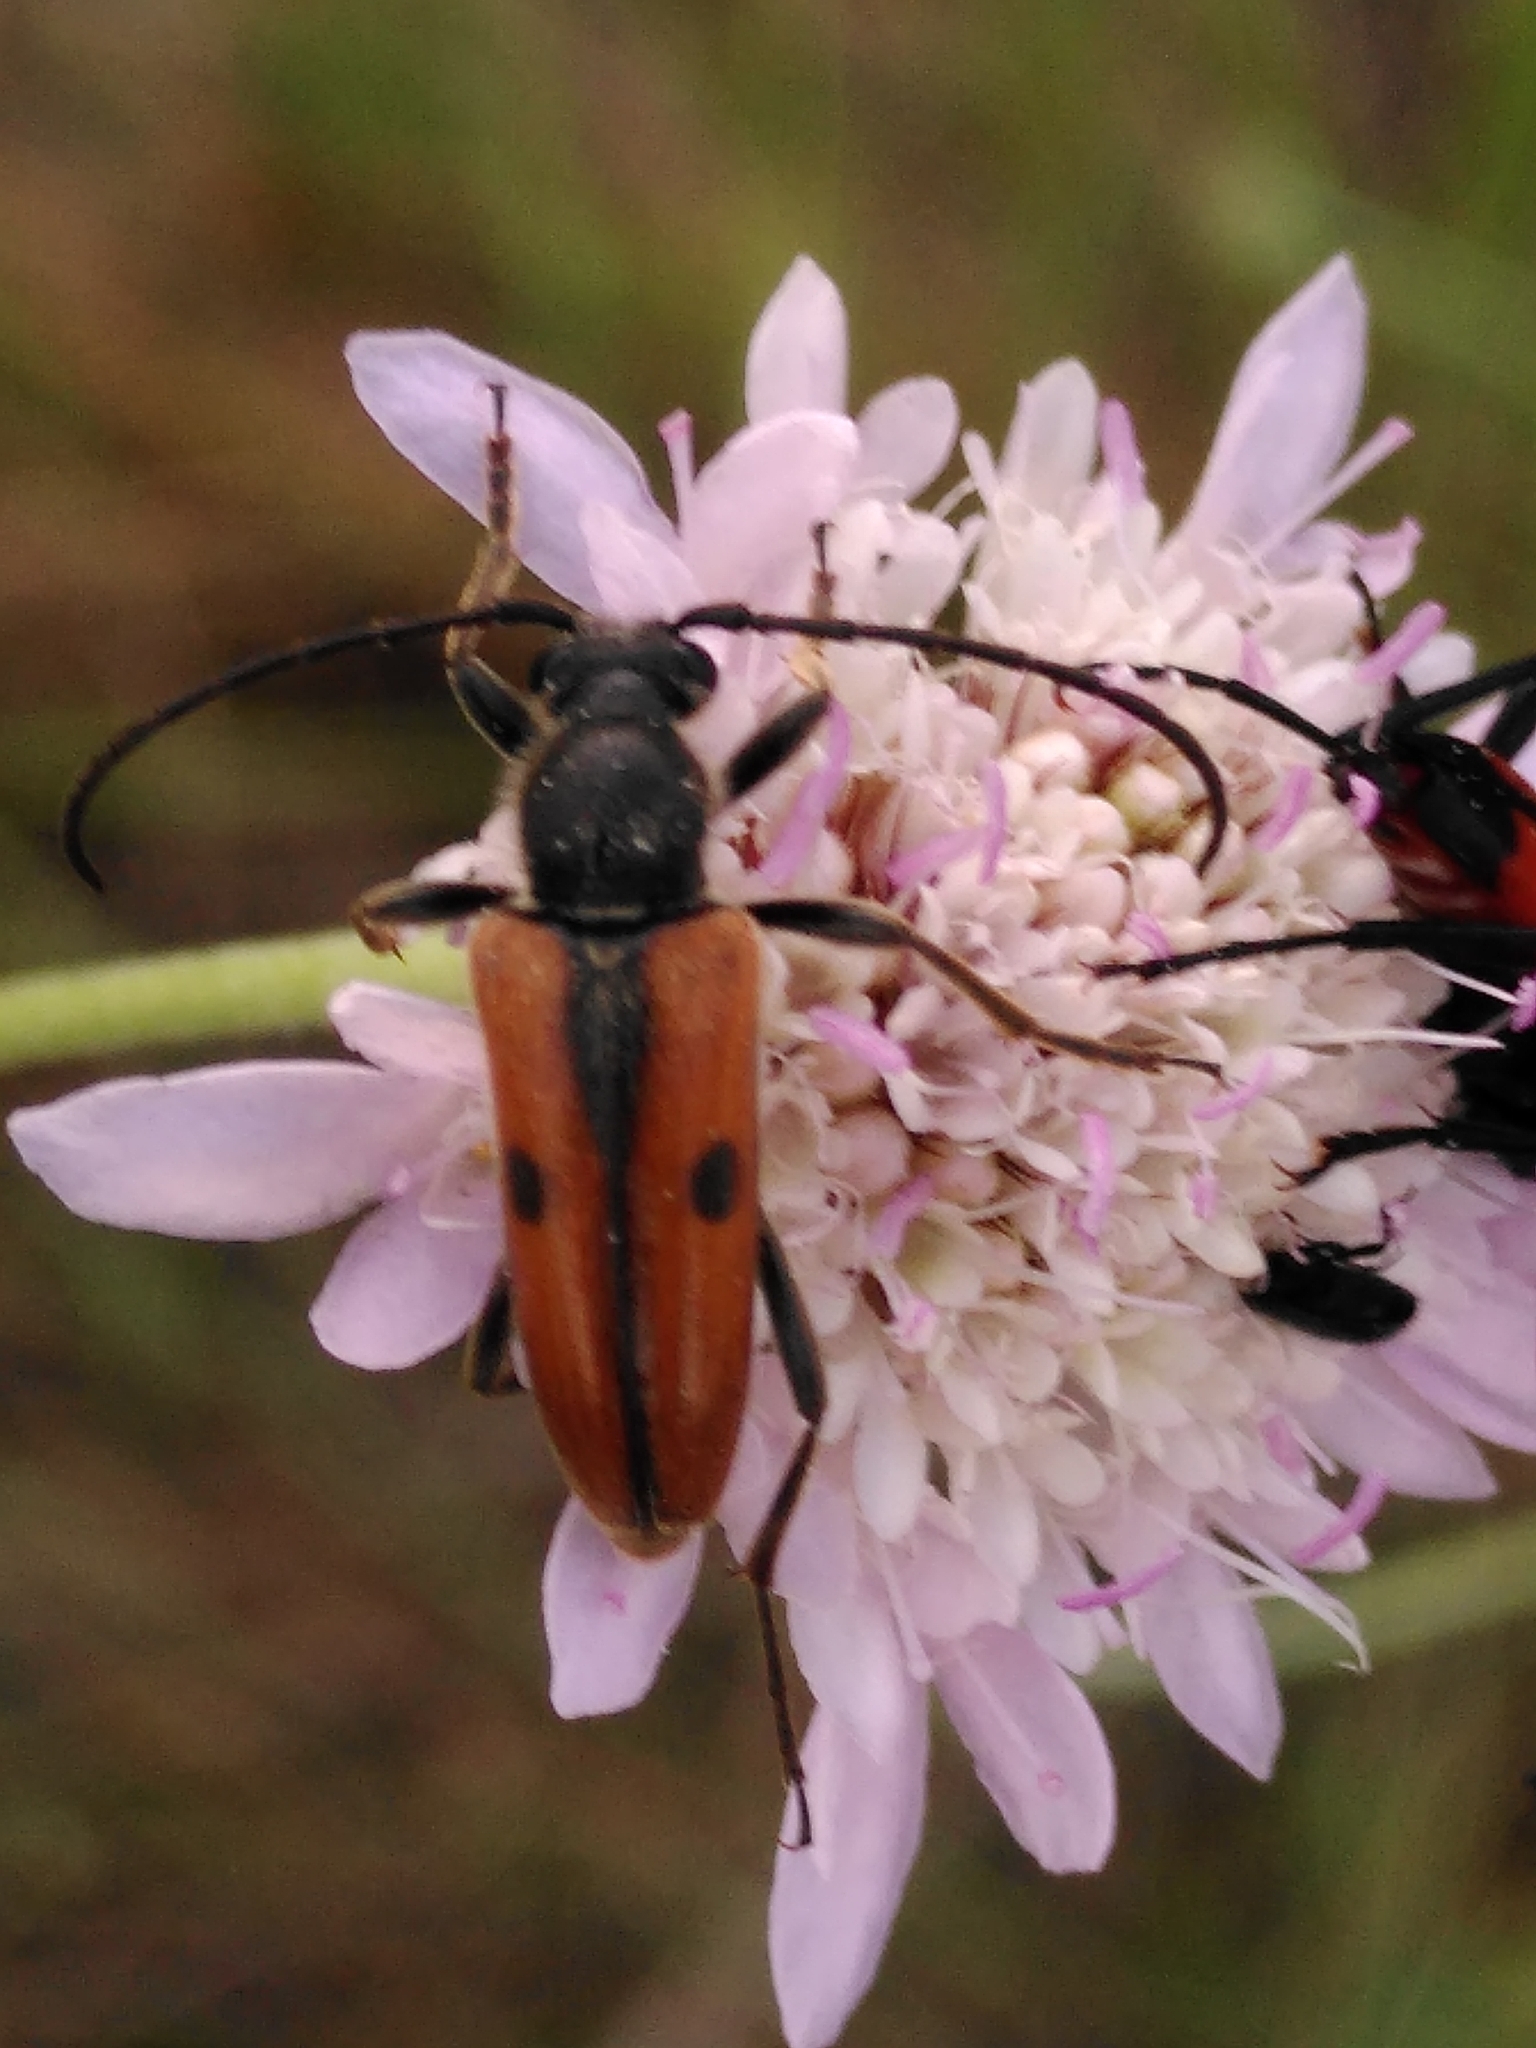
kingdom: Animalia
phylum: Arthropoda
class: Insecta
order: Coleoptera
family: Cerambycidae
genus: Vadonia
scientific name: Vadonia unipunctata
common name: Long-horned beetle
